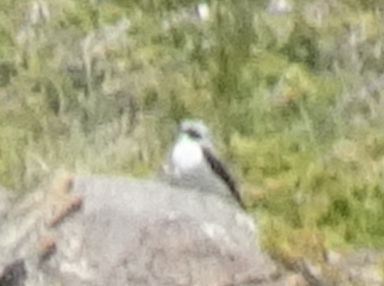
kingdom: Animalia
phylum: Chordata
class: Aves
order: Passeriformes
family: Muscicapidae
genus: Oenanthe
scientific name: Oenanthe oenanthe
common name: Northern wheatear
